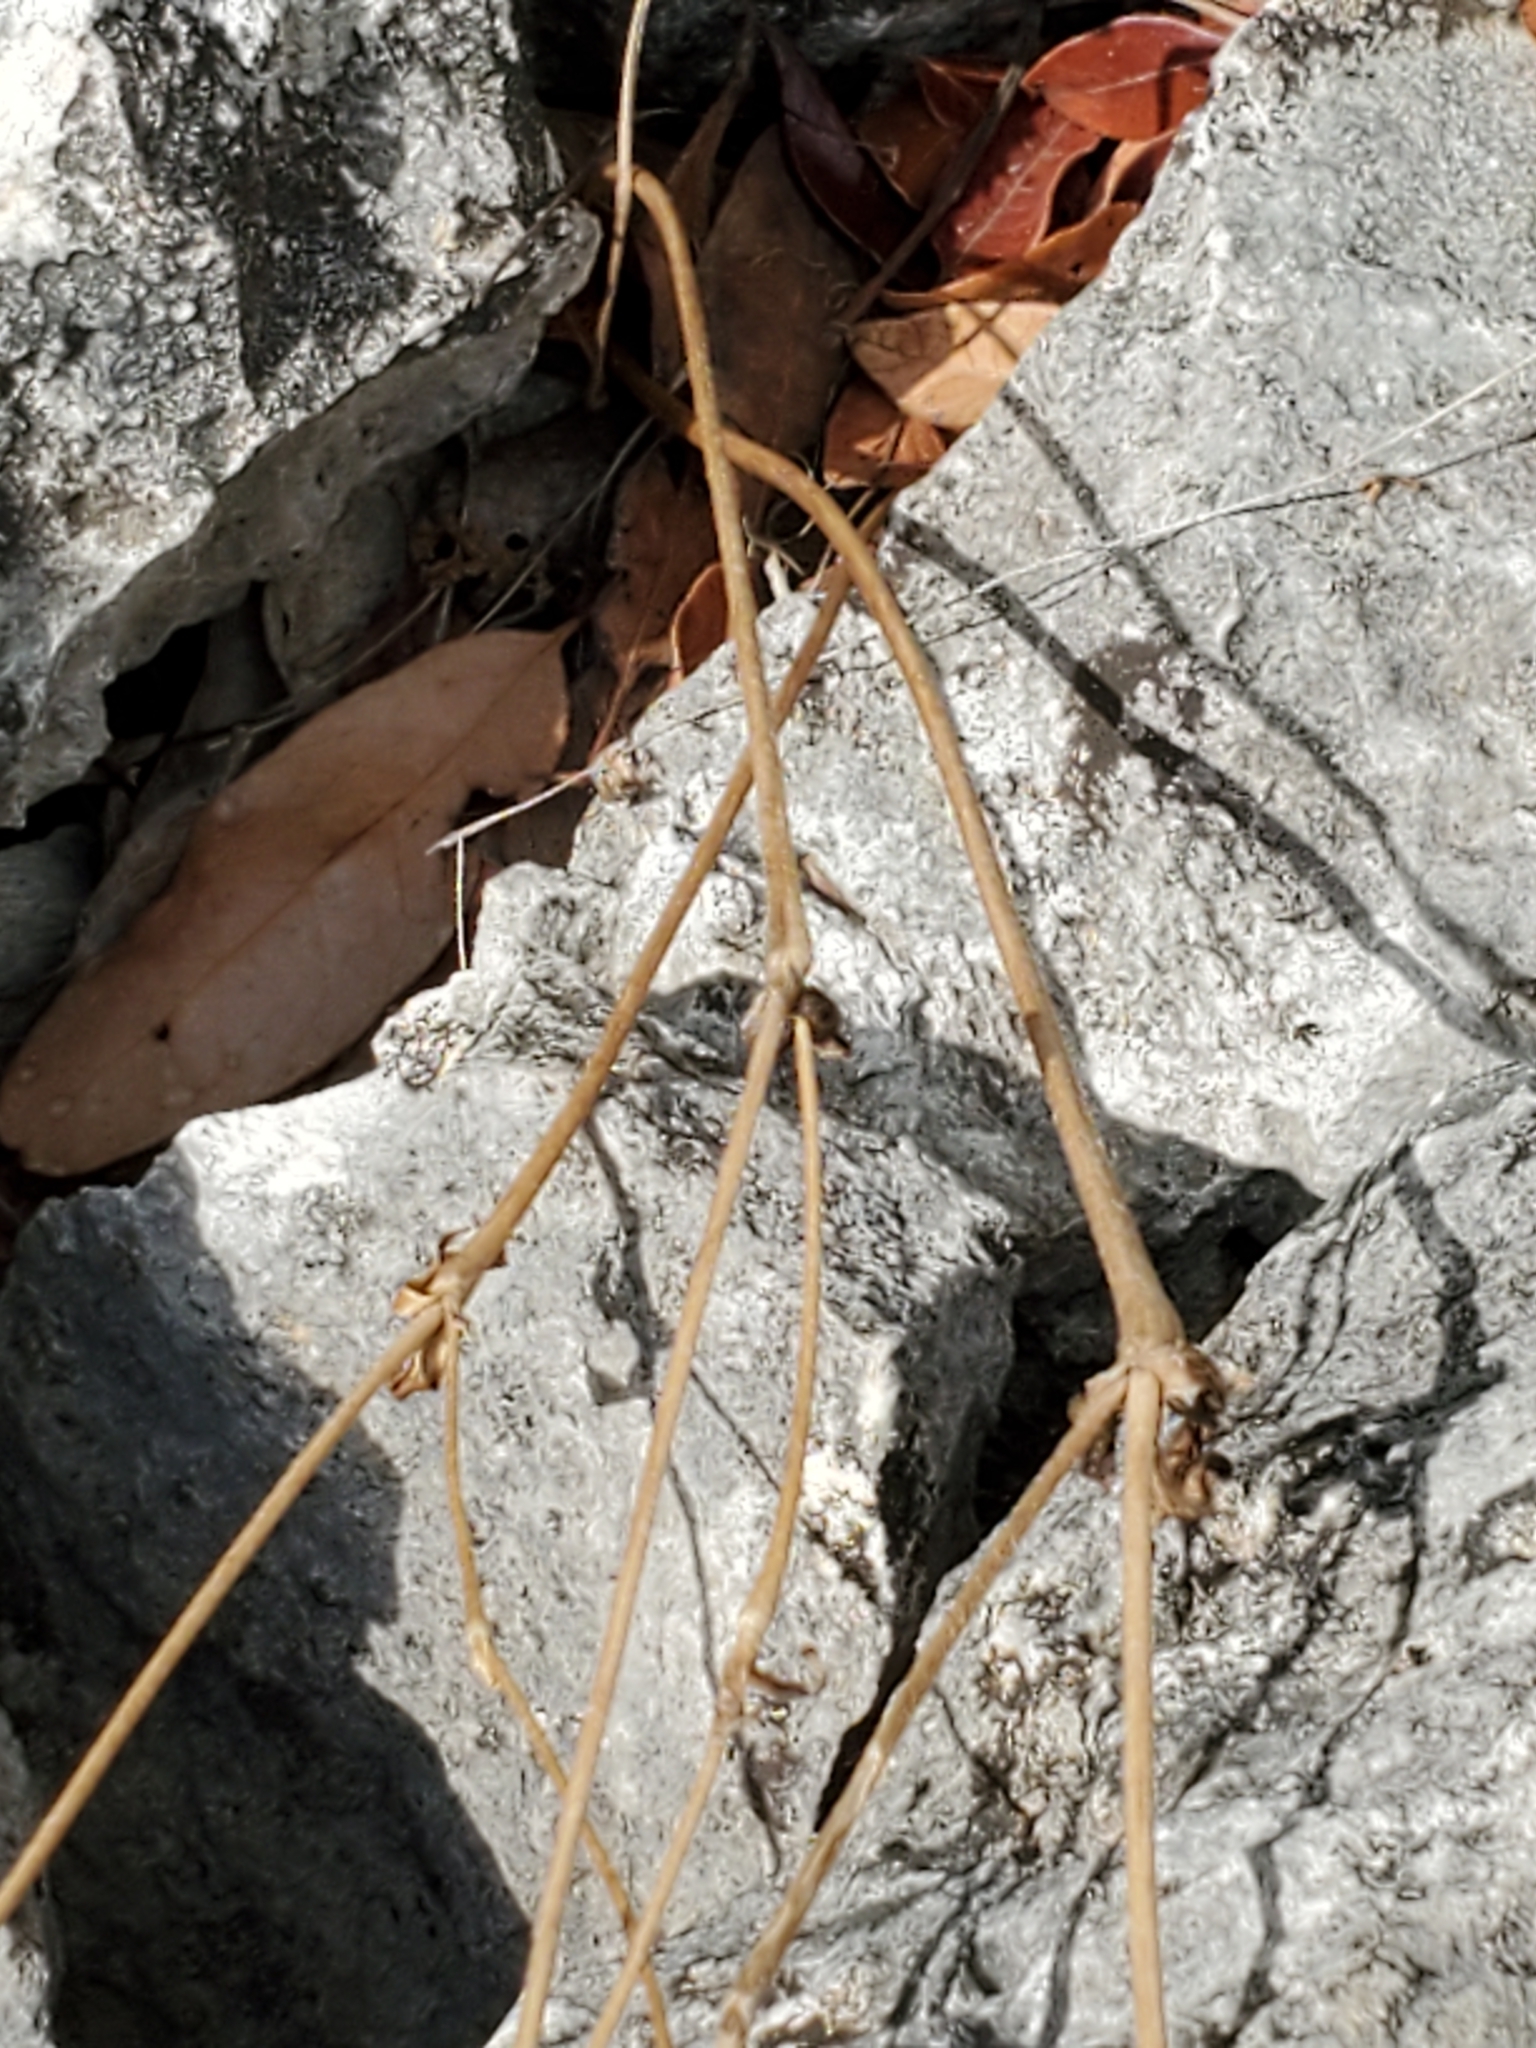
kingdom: Plantae
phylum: Tracheophyta
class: Magnoliopsida
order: Ranunculales
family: Ranunculaceae
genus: Anemone
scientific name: Anemone edwardsiana
